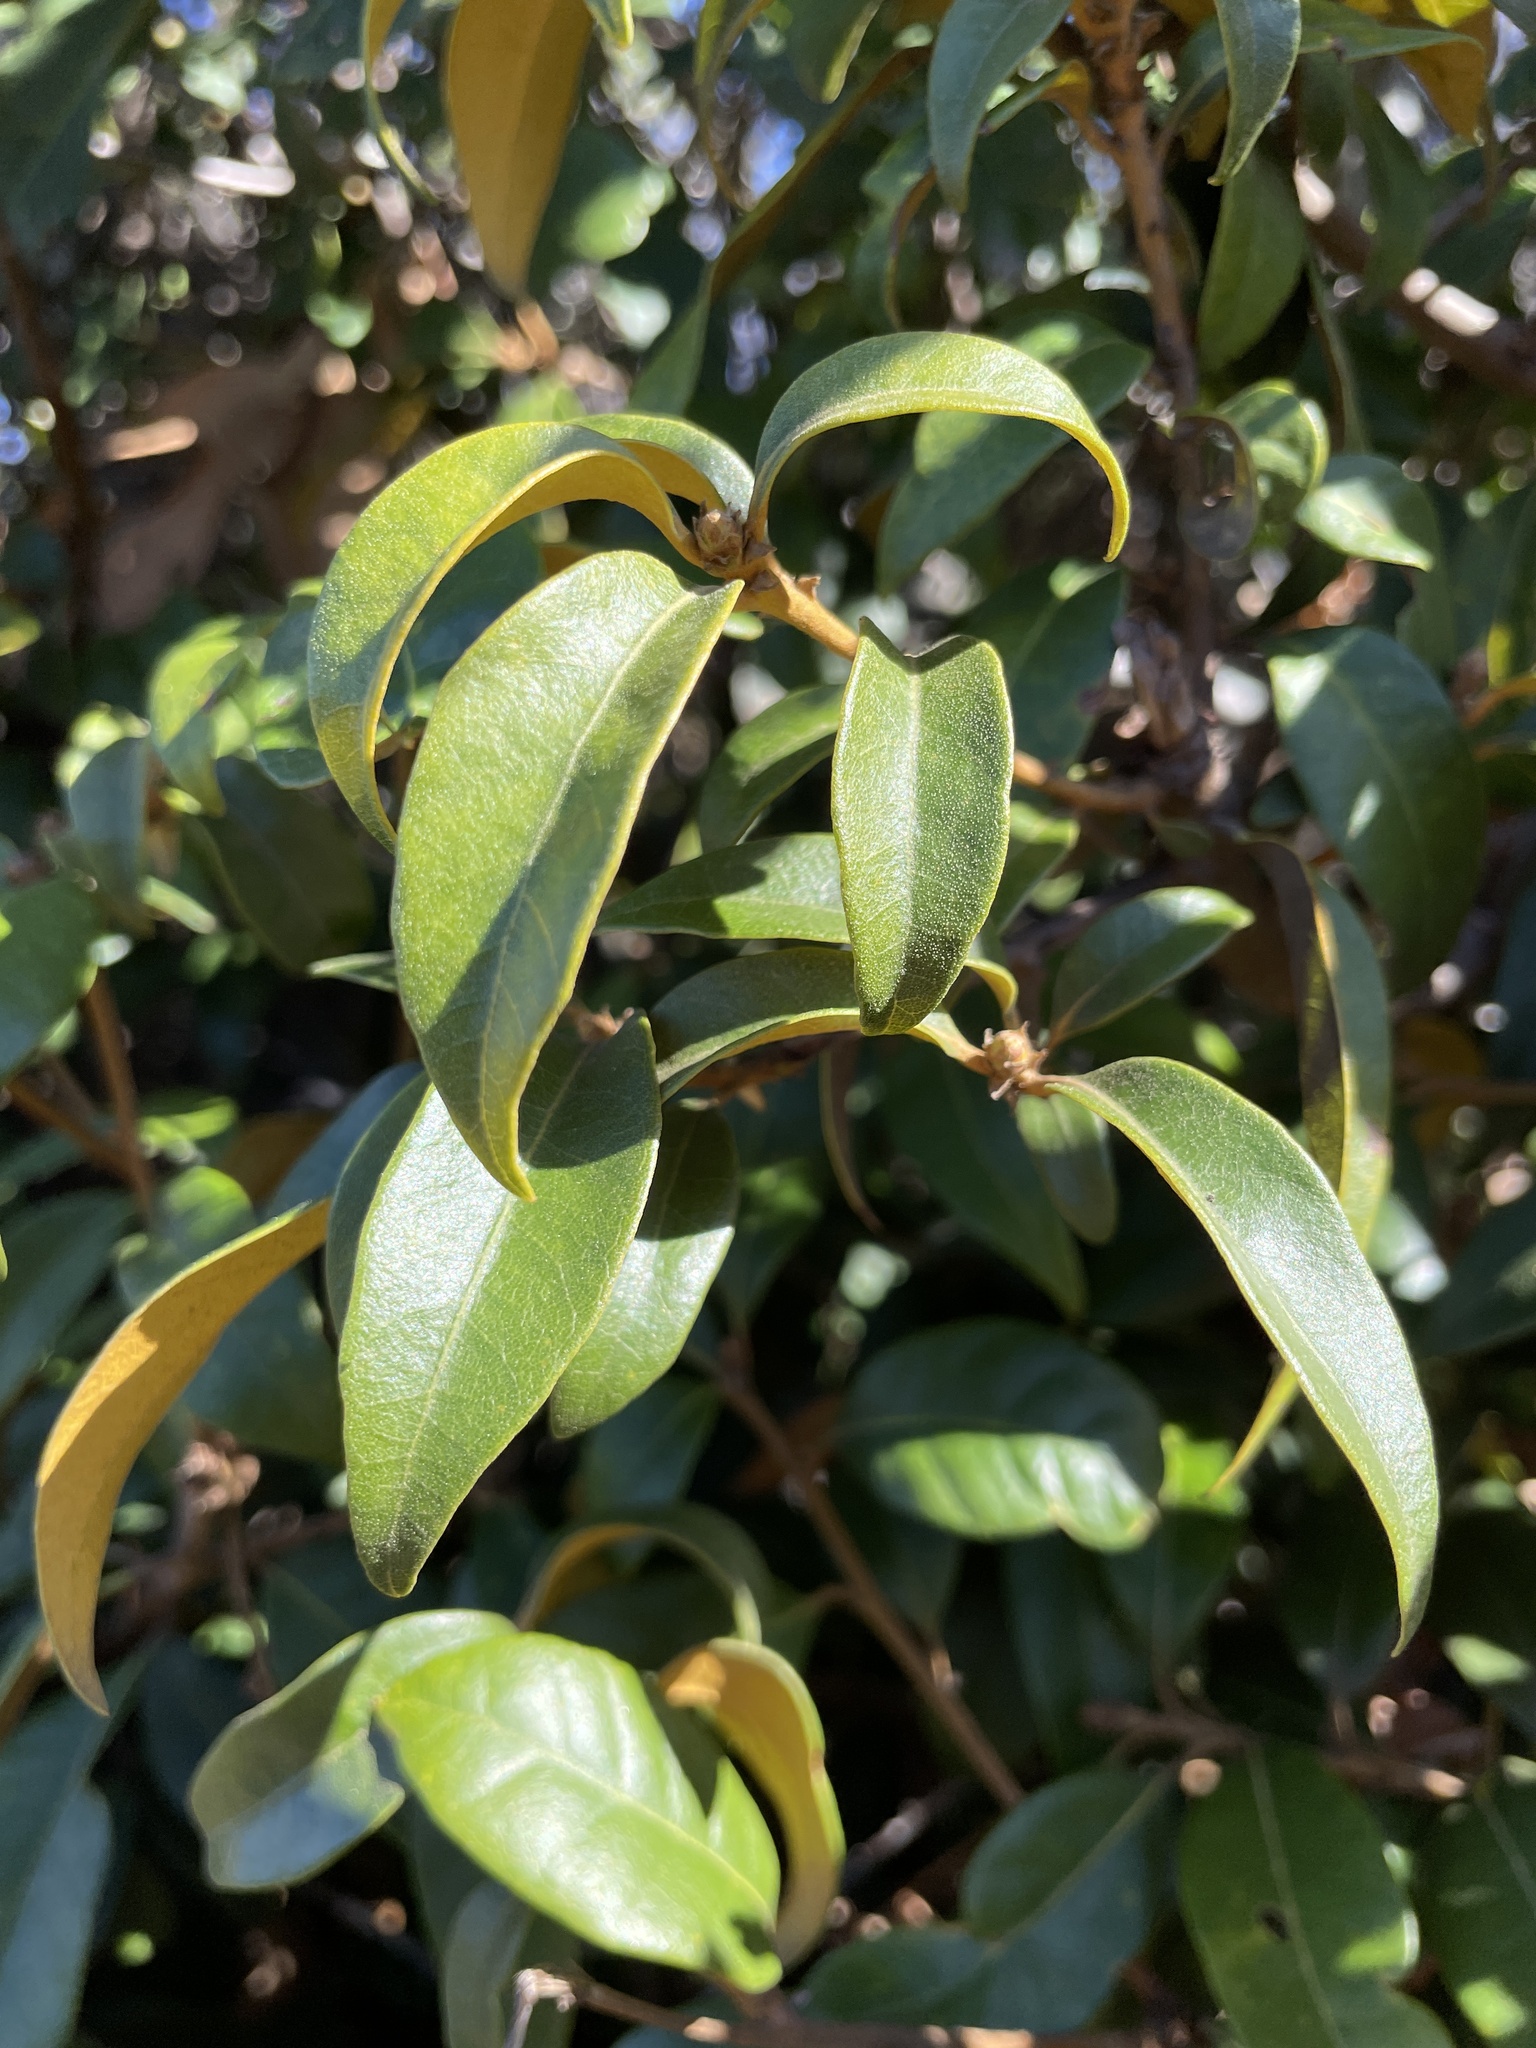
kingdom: Plantae
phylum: Tracheophyta
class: Magnoliopsida
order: Fagales
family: Fagaceae
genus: Chrysolepis
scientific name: Chrysolepis chrysophylla
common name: Giant chinquapin
